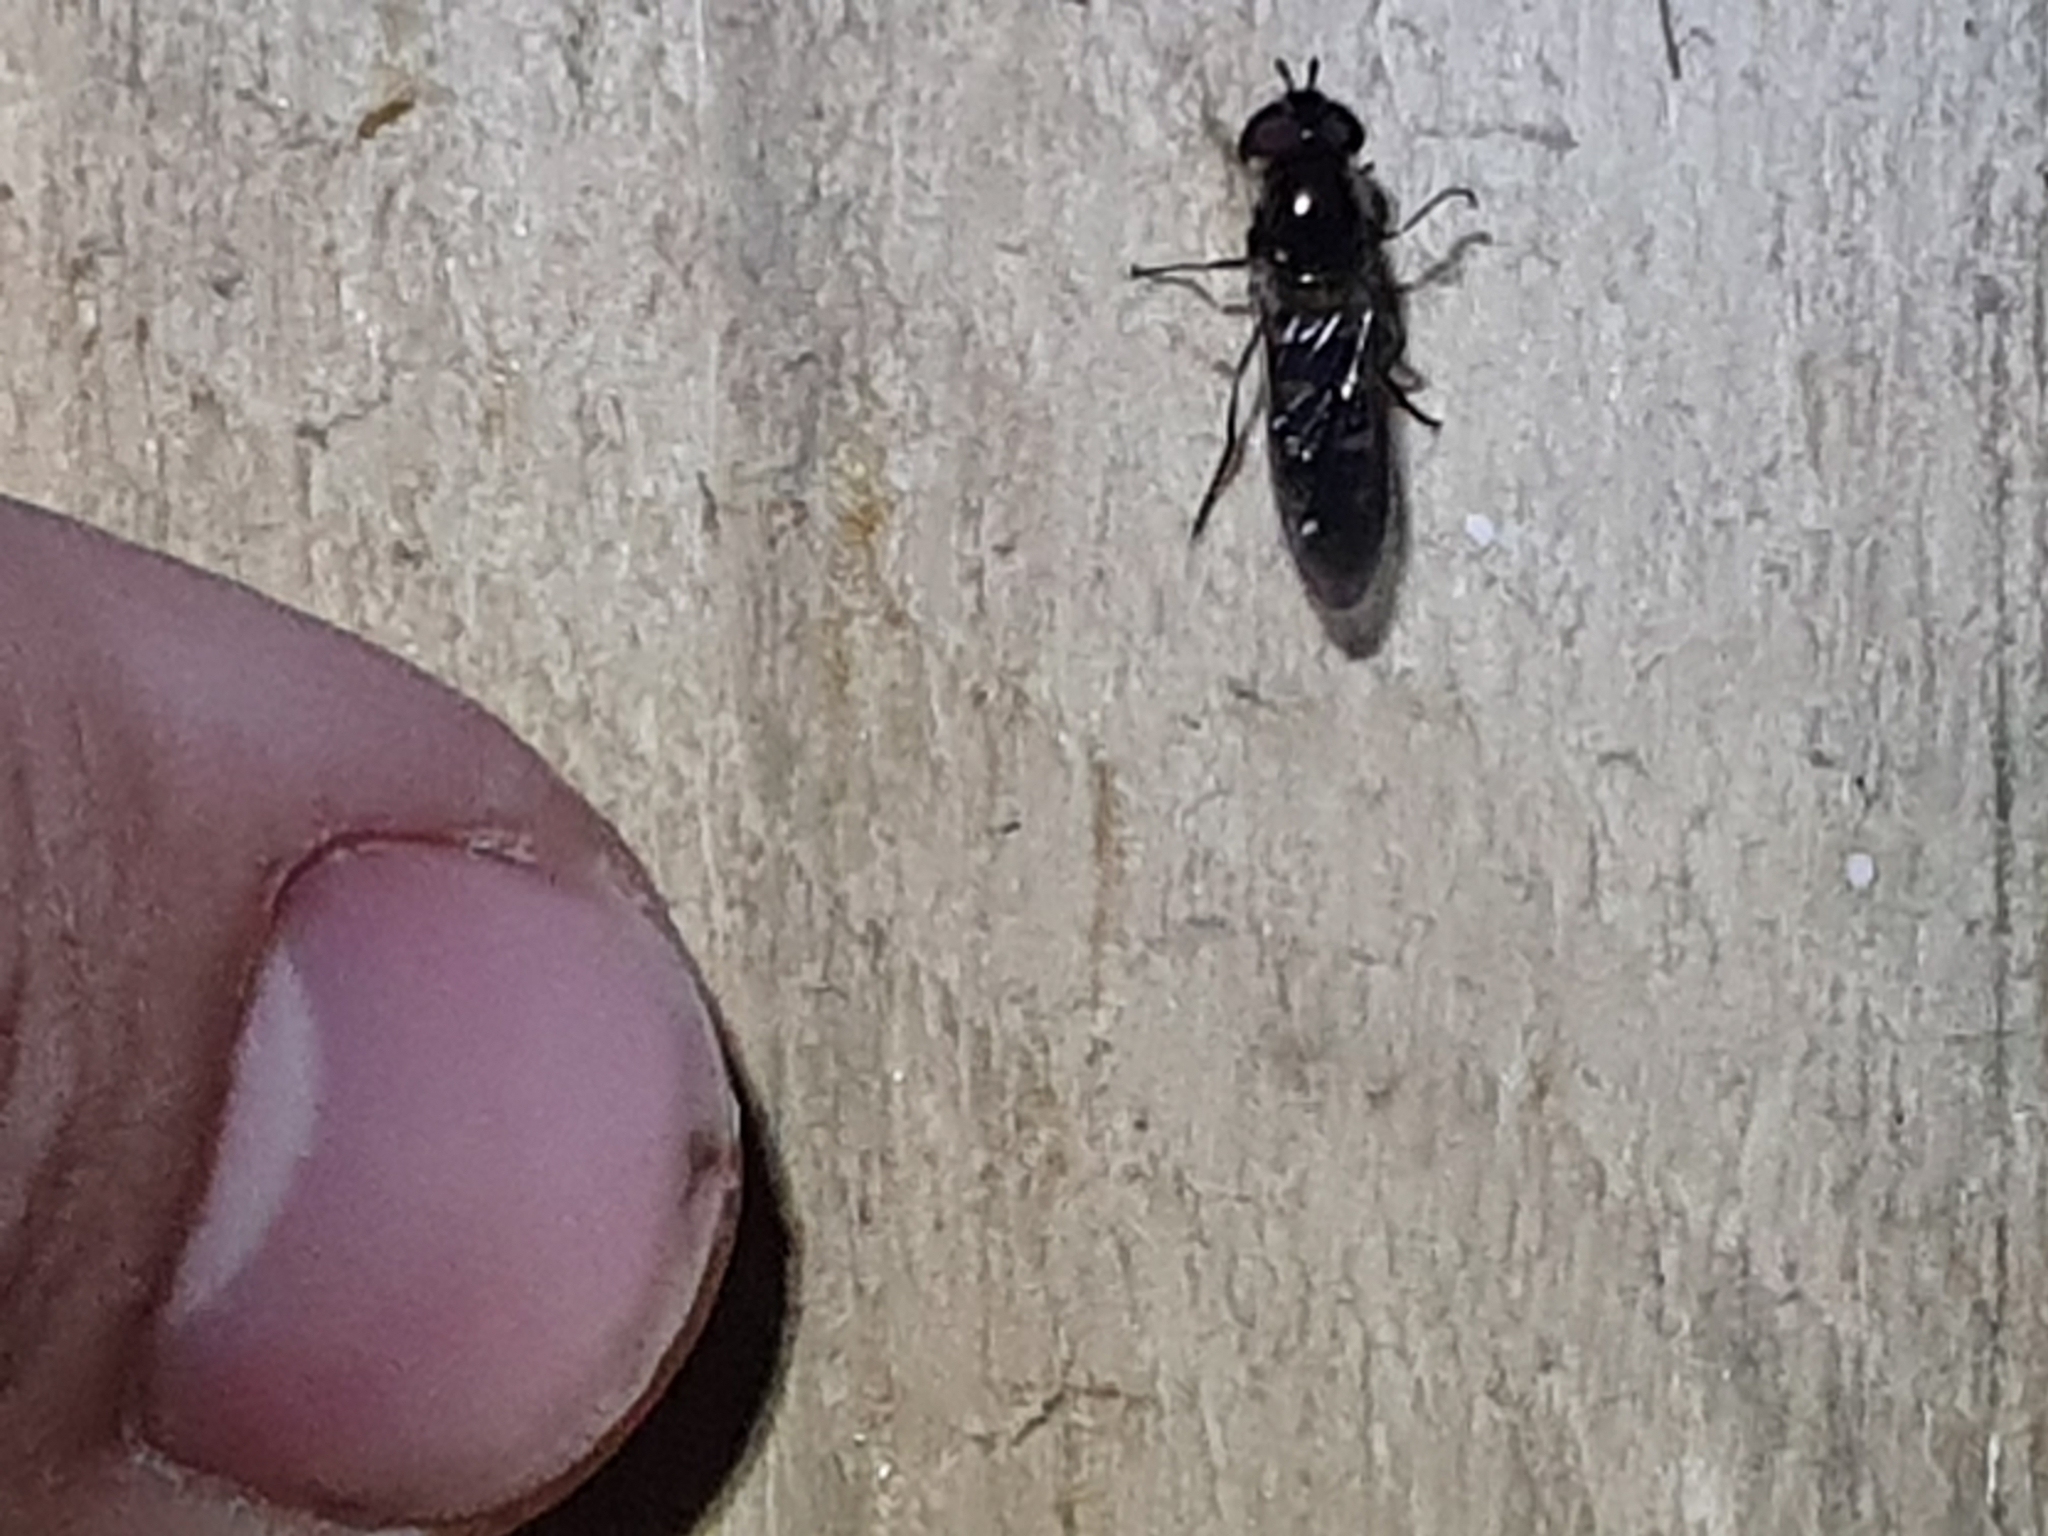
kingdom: Animalia
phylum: Arthropoda
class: Insecta
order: Diptera
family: Syrphidae
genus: Melangyna
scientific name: Melangyna novaezelandiae
